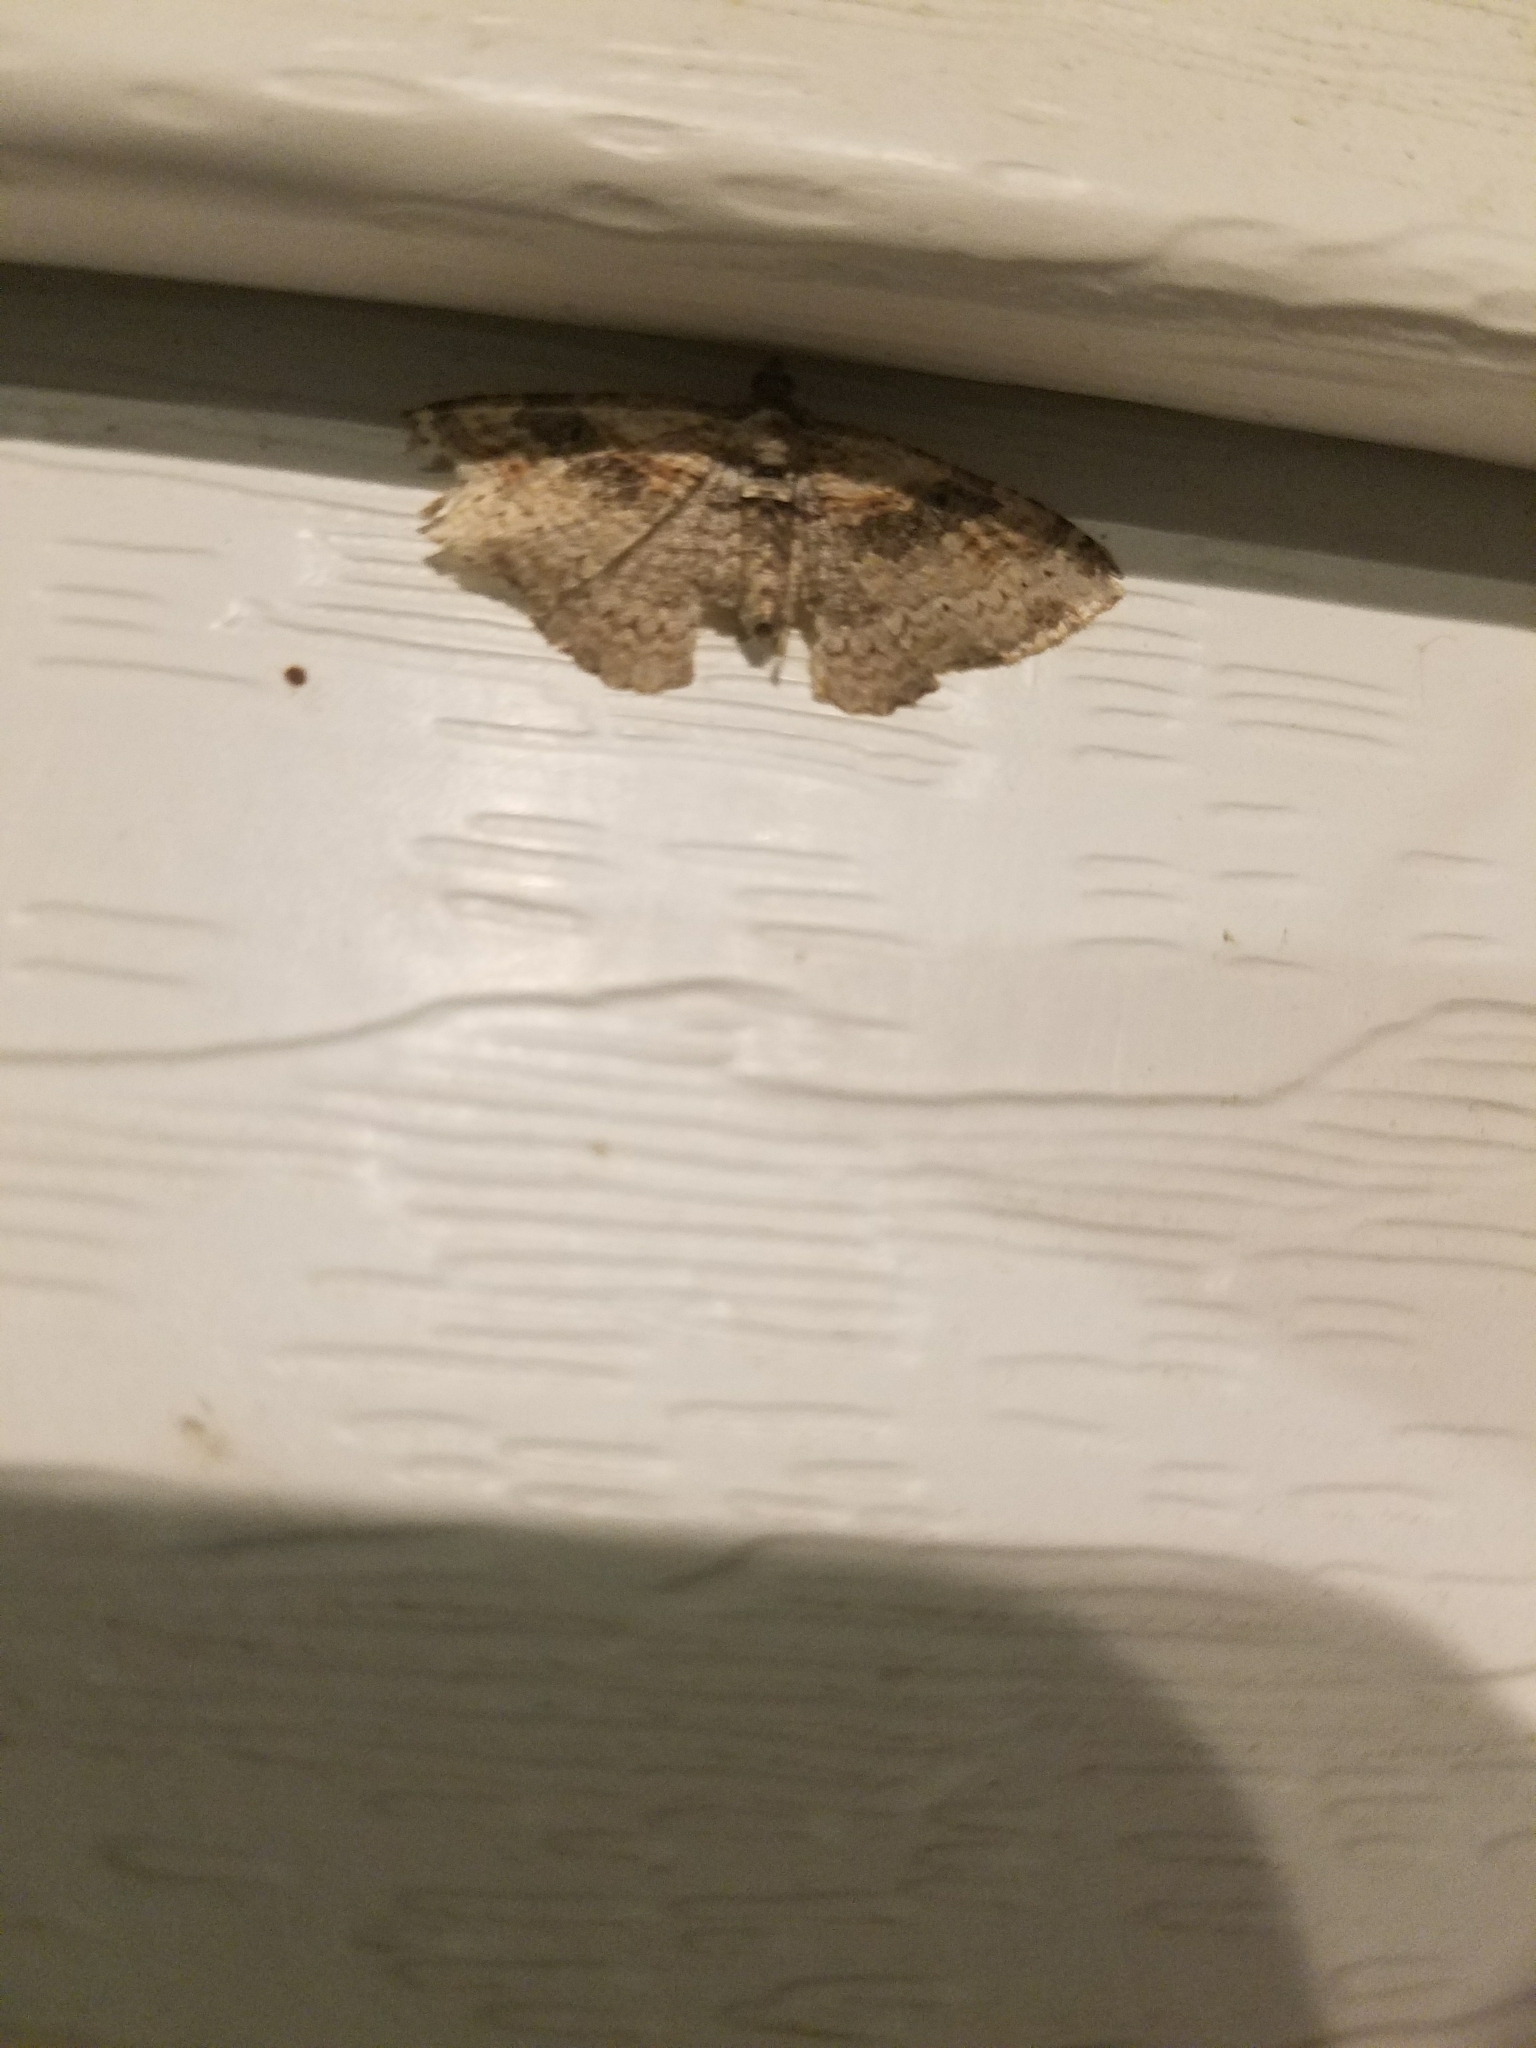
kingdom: Animalia
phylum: Arthropoda
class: Insecta
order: Lepidoptera
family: Geometridae
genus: Costaconvexa
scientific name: Costaconvexa centrostrigaria
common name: Bent-line carpet
